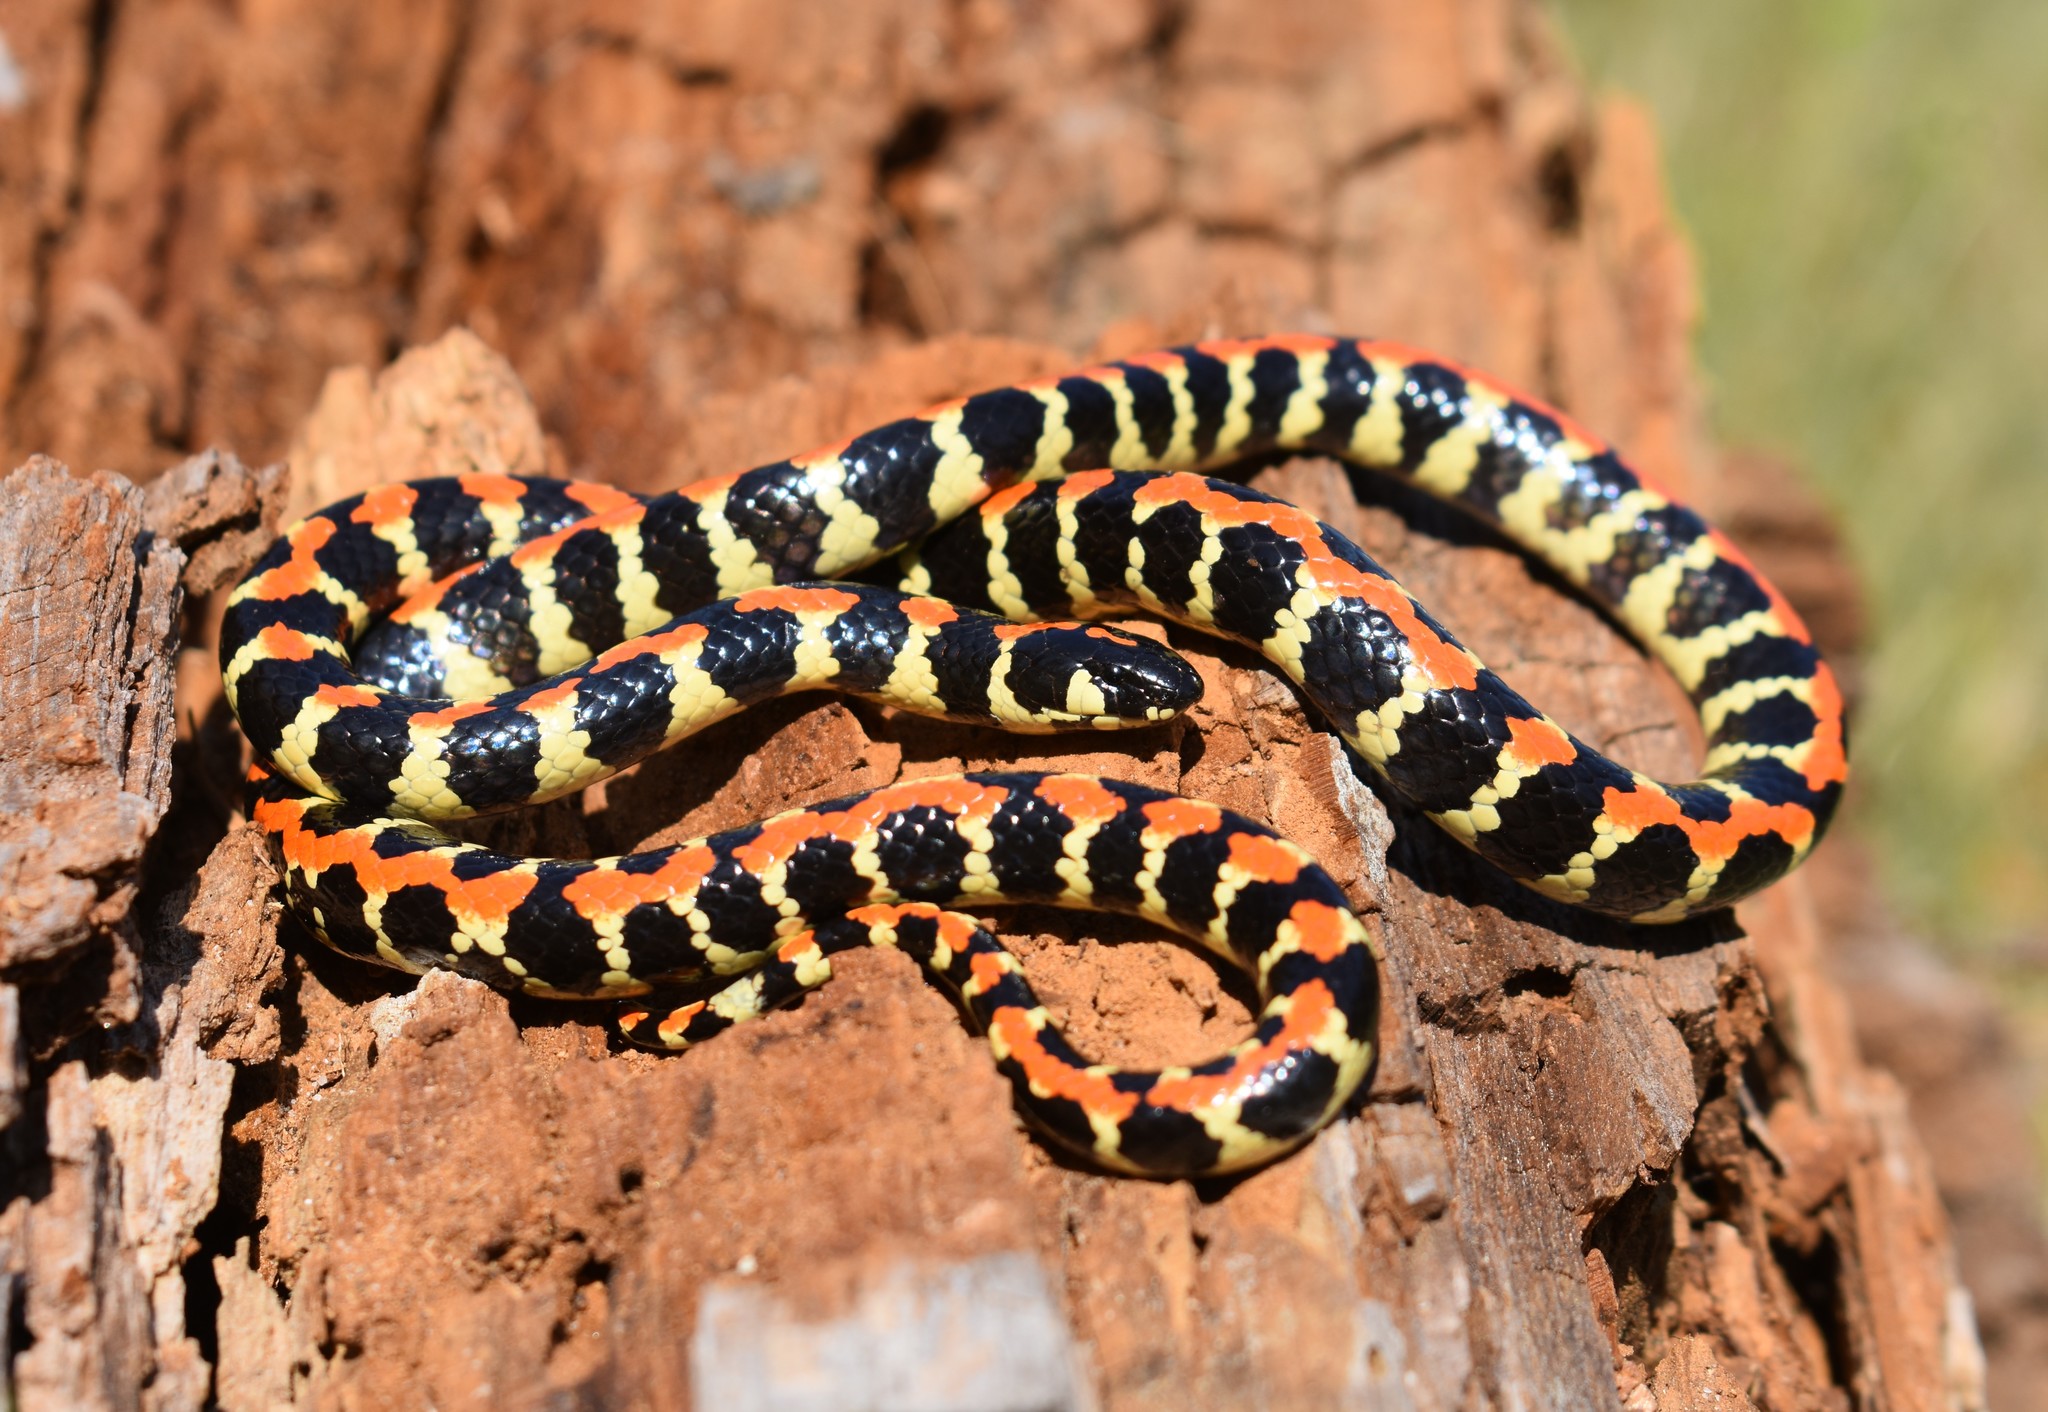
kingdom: Animalia
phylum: Chordata
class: Squamata
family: Atractaspididae
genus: Homoroselaps
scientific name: Homoroselaps lacteus
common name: Spotted harlequin snake
